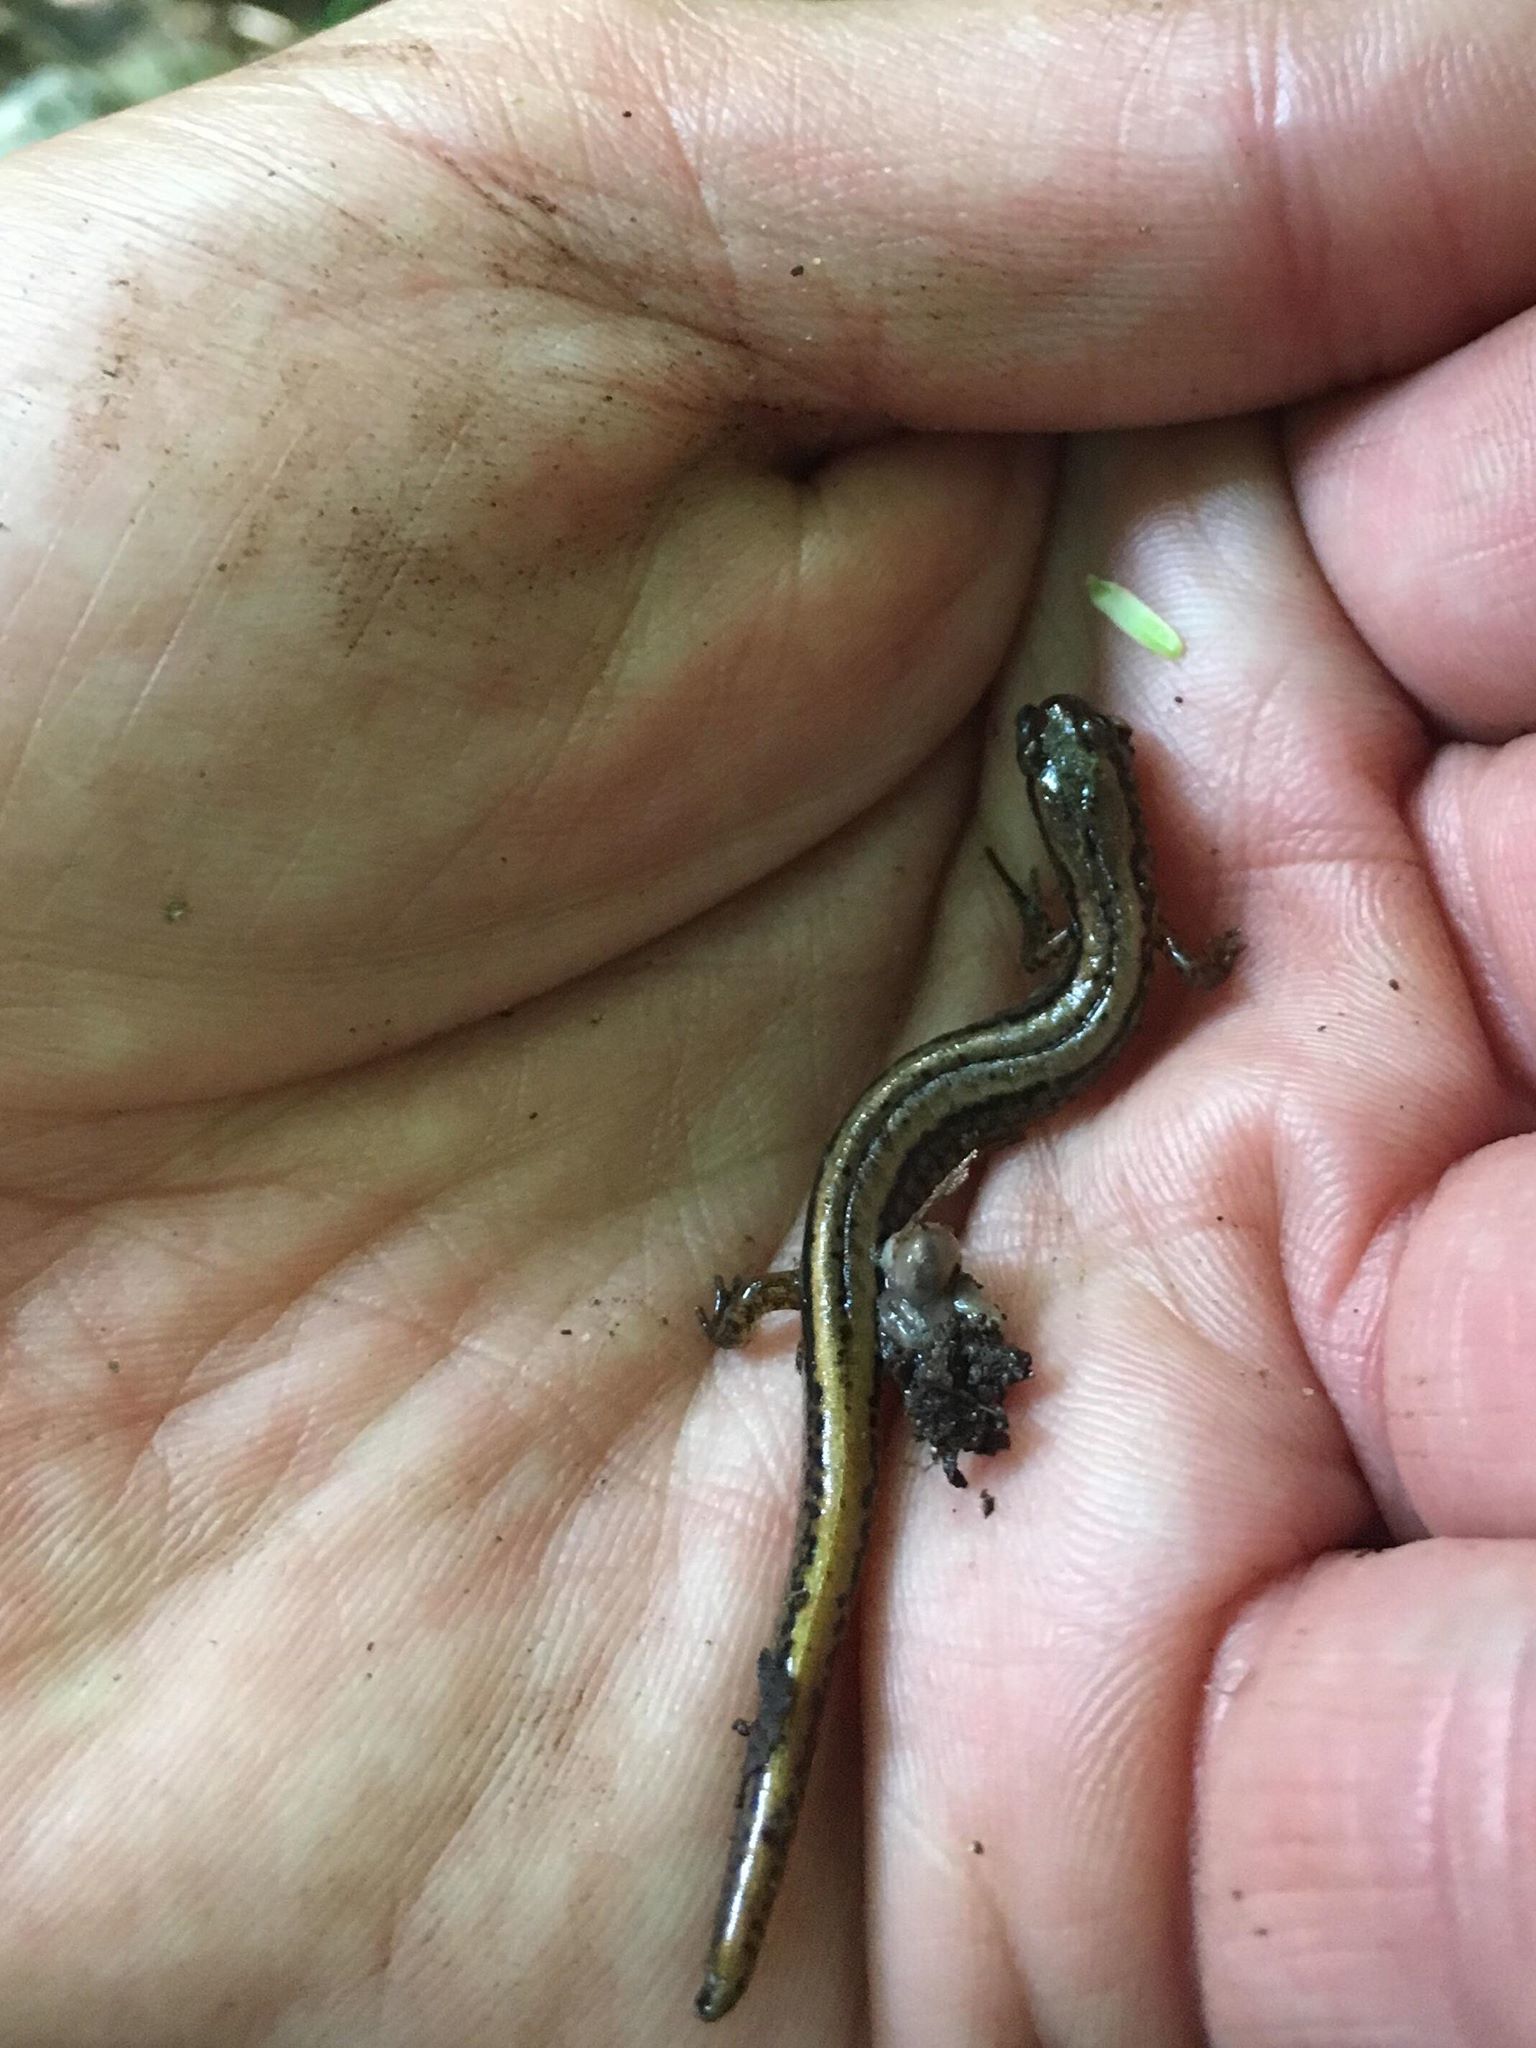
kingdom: Animalia
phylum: Chordata
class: Amphibia
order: Caudata
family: Plethodontidae
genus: Eurycea
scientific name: Eurycea bislineata
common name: Northern two-lined salamander
